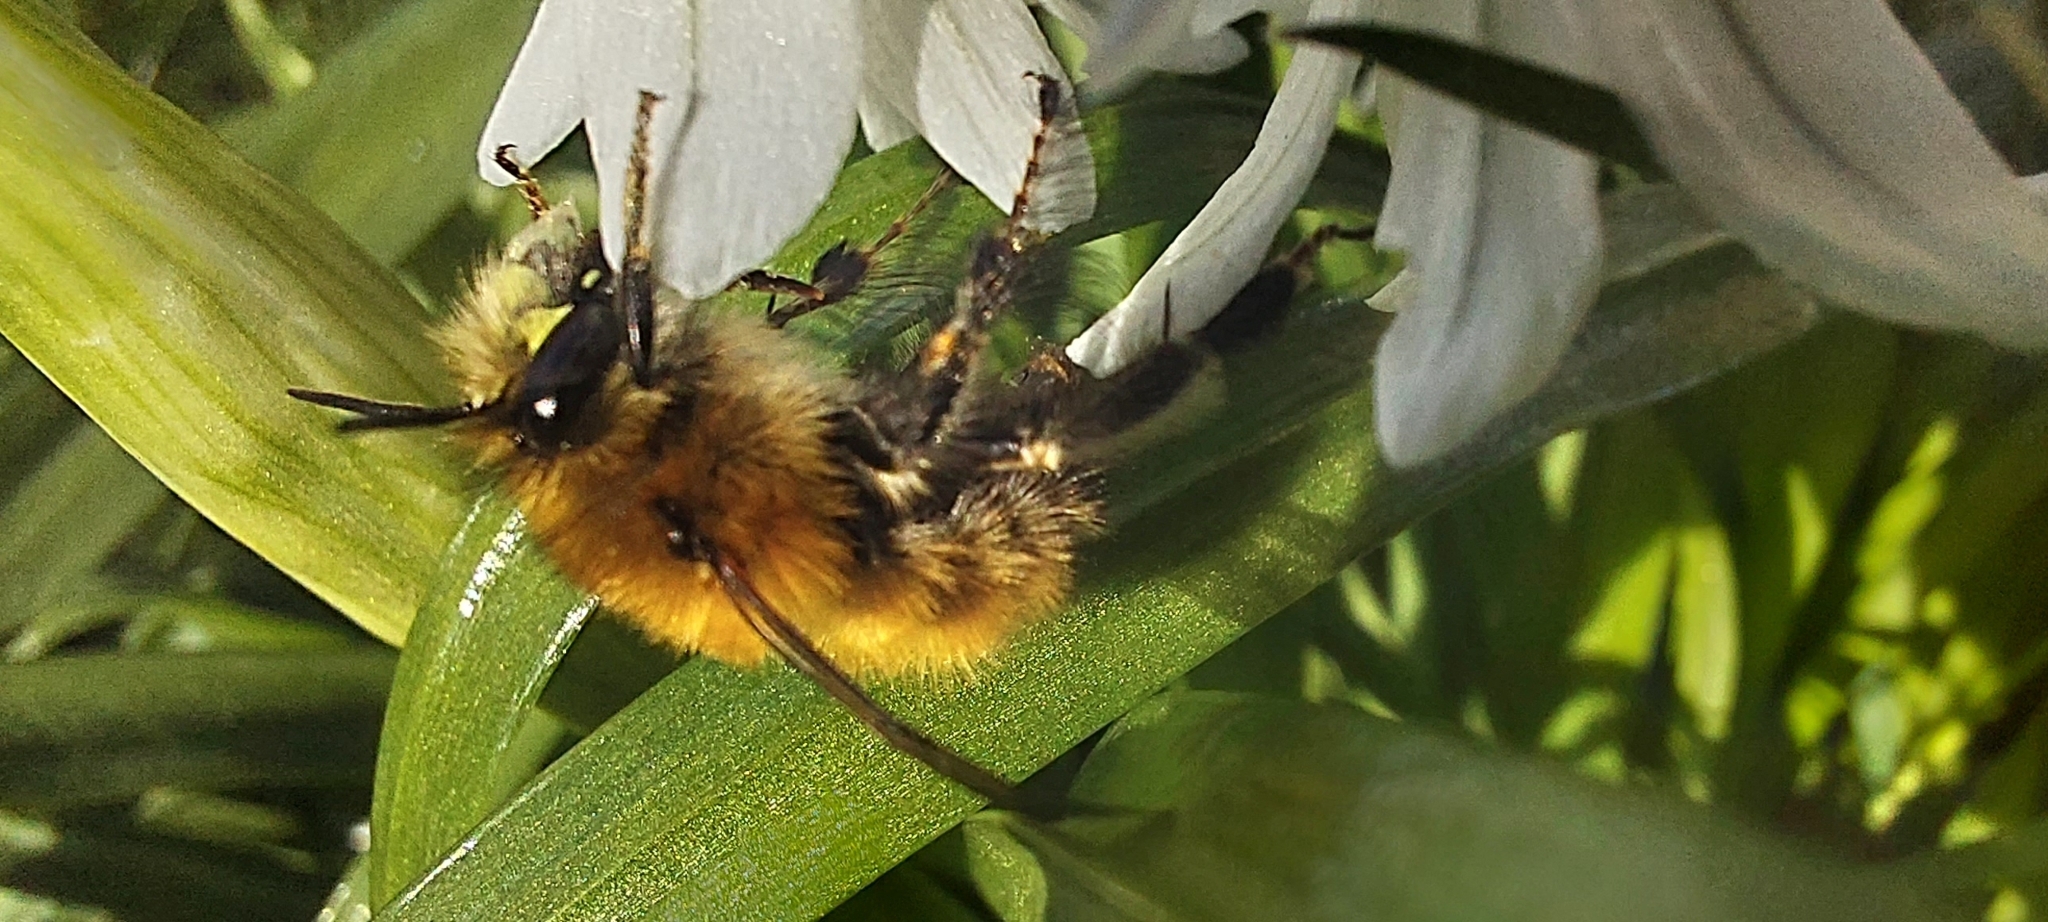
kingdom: Animalia
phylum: Arthropoda
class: Insecta
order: Hymenoptera
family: Apidae
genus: Anthophora
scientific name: Anthophora plumipes
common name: Hairy-footed flower bee
